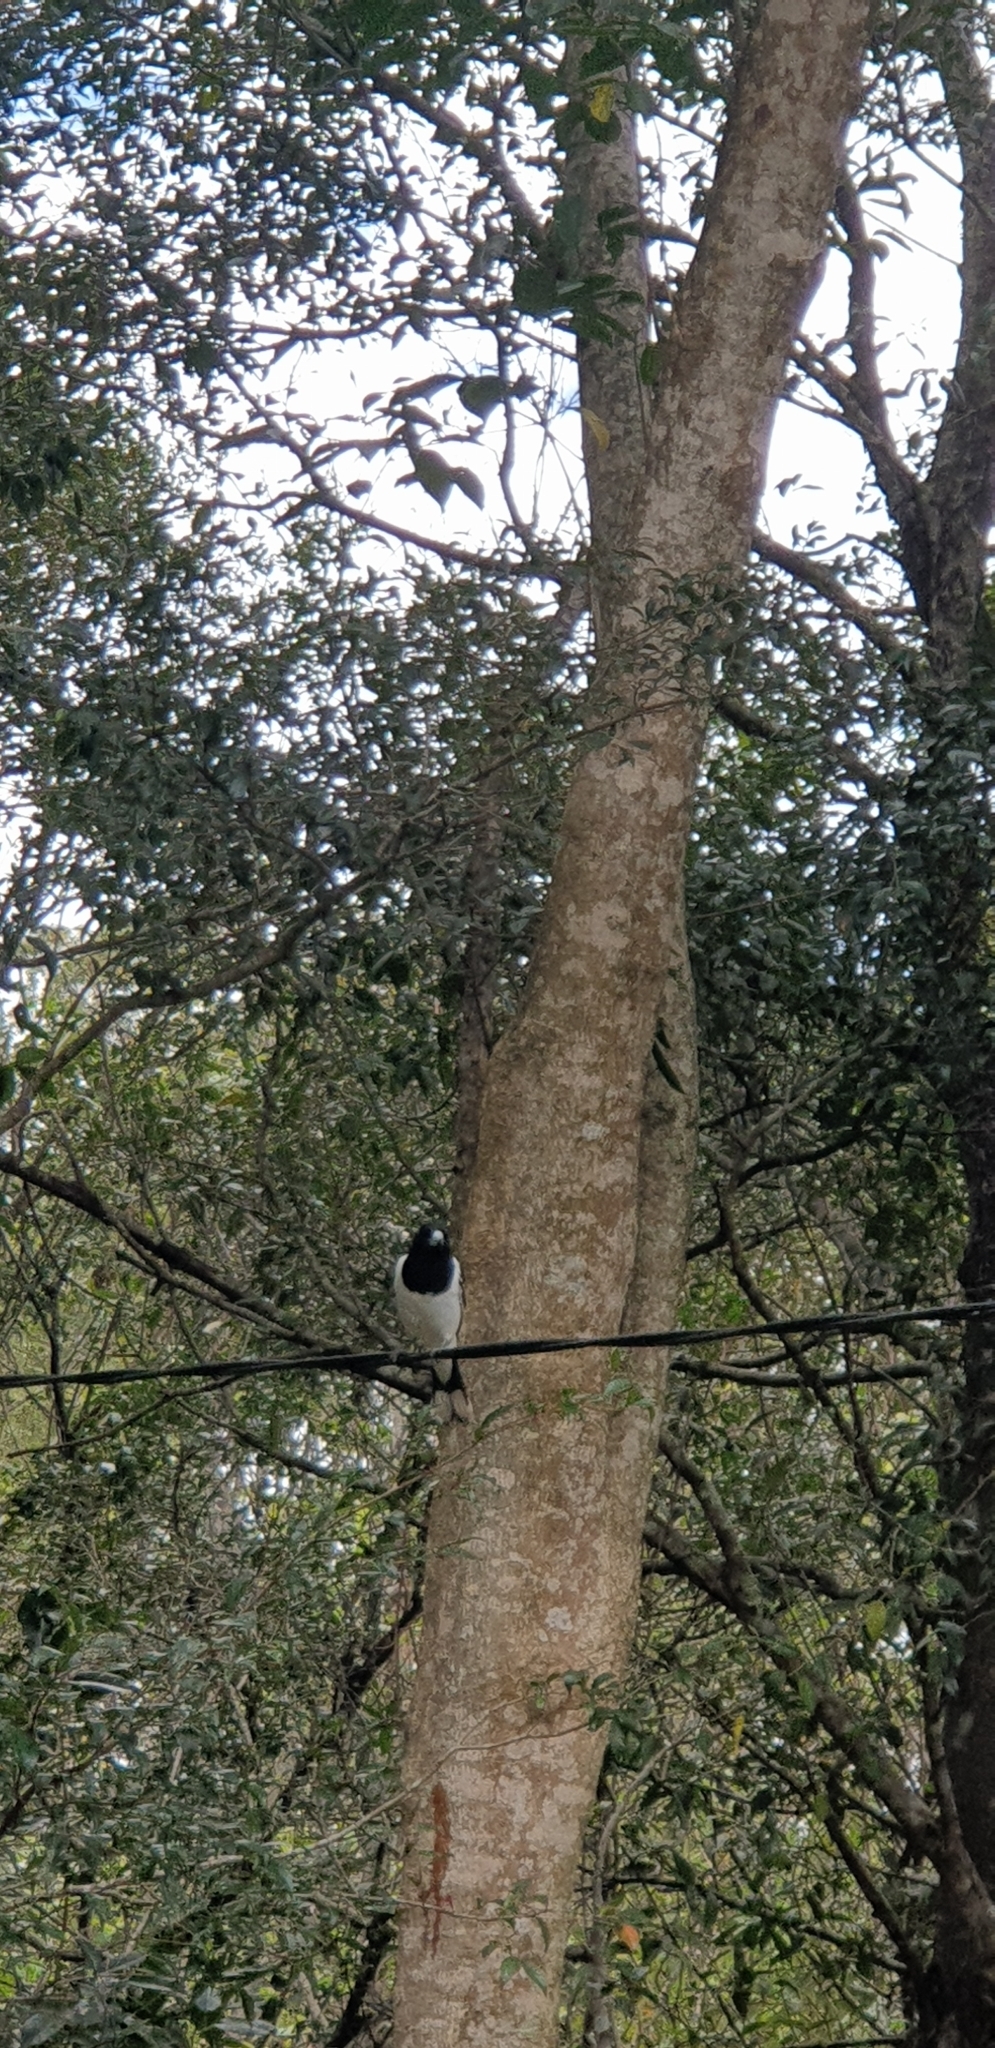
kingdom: Animalia
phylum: Chordata
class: Aves
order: Passeriformes
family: Cracticidae
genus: Cracticus
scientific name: Cracticus nigrogularis
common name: Pied butcherbird
